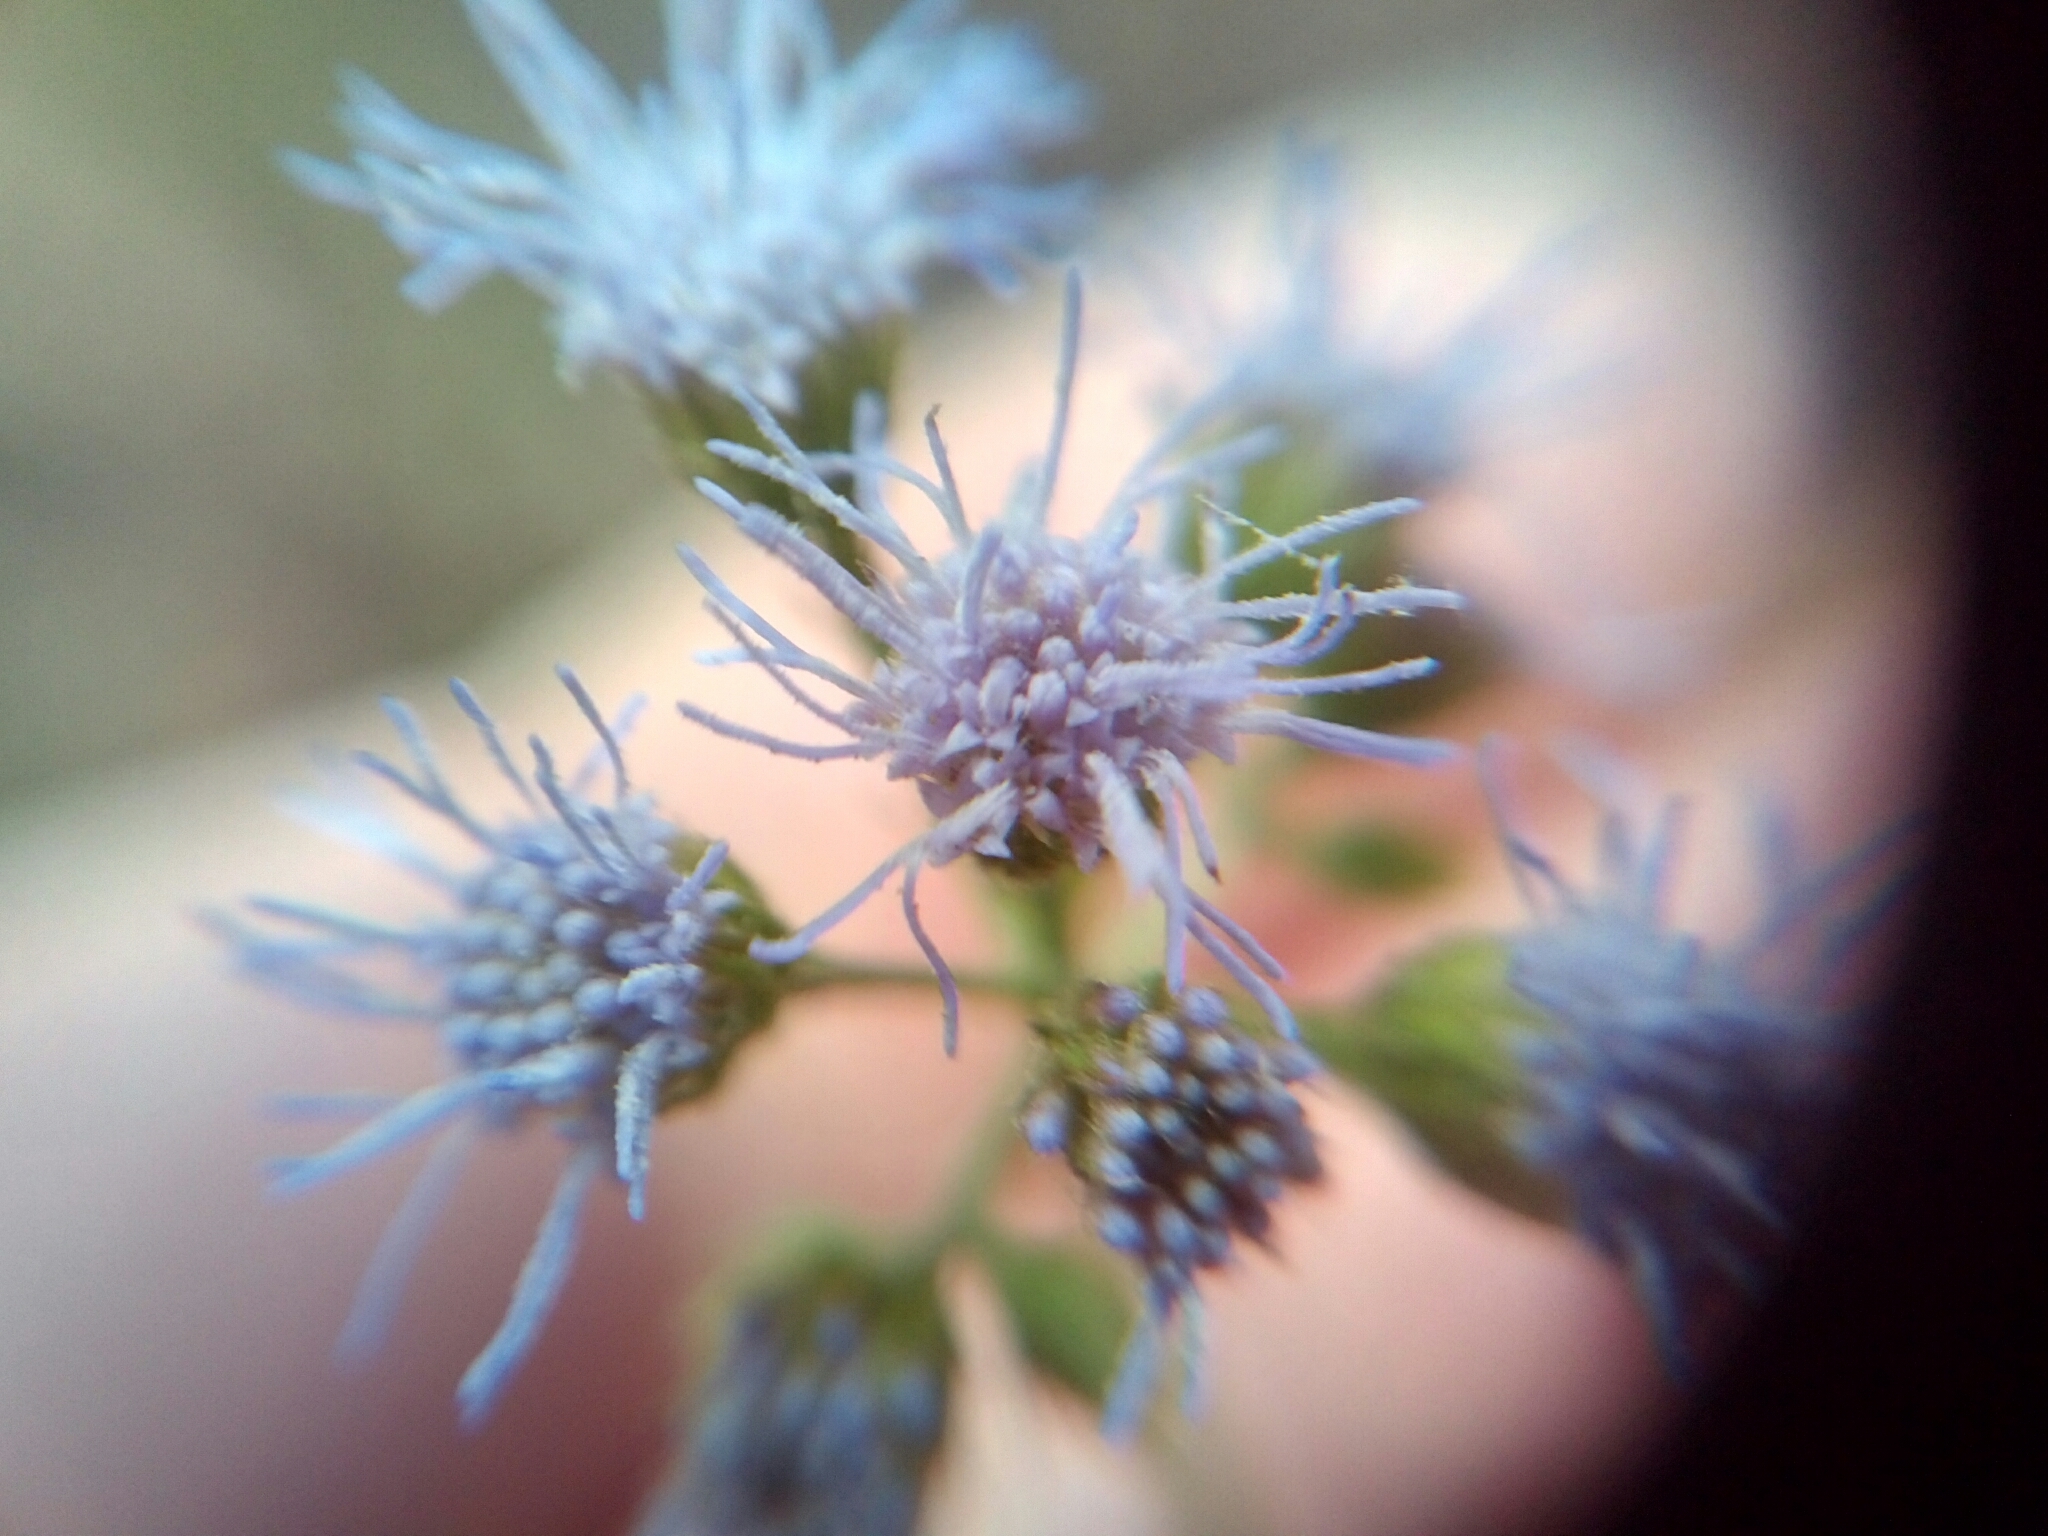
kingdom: Plantae
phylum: Tracheophyta
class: Magnoliopsida
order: Asterales
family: Asteraceae
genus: Conoclinium
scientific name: Conoclinium coelestinum
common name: Blue mistflower
